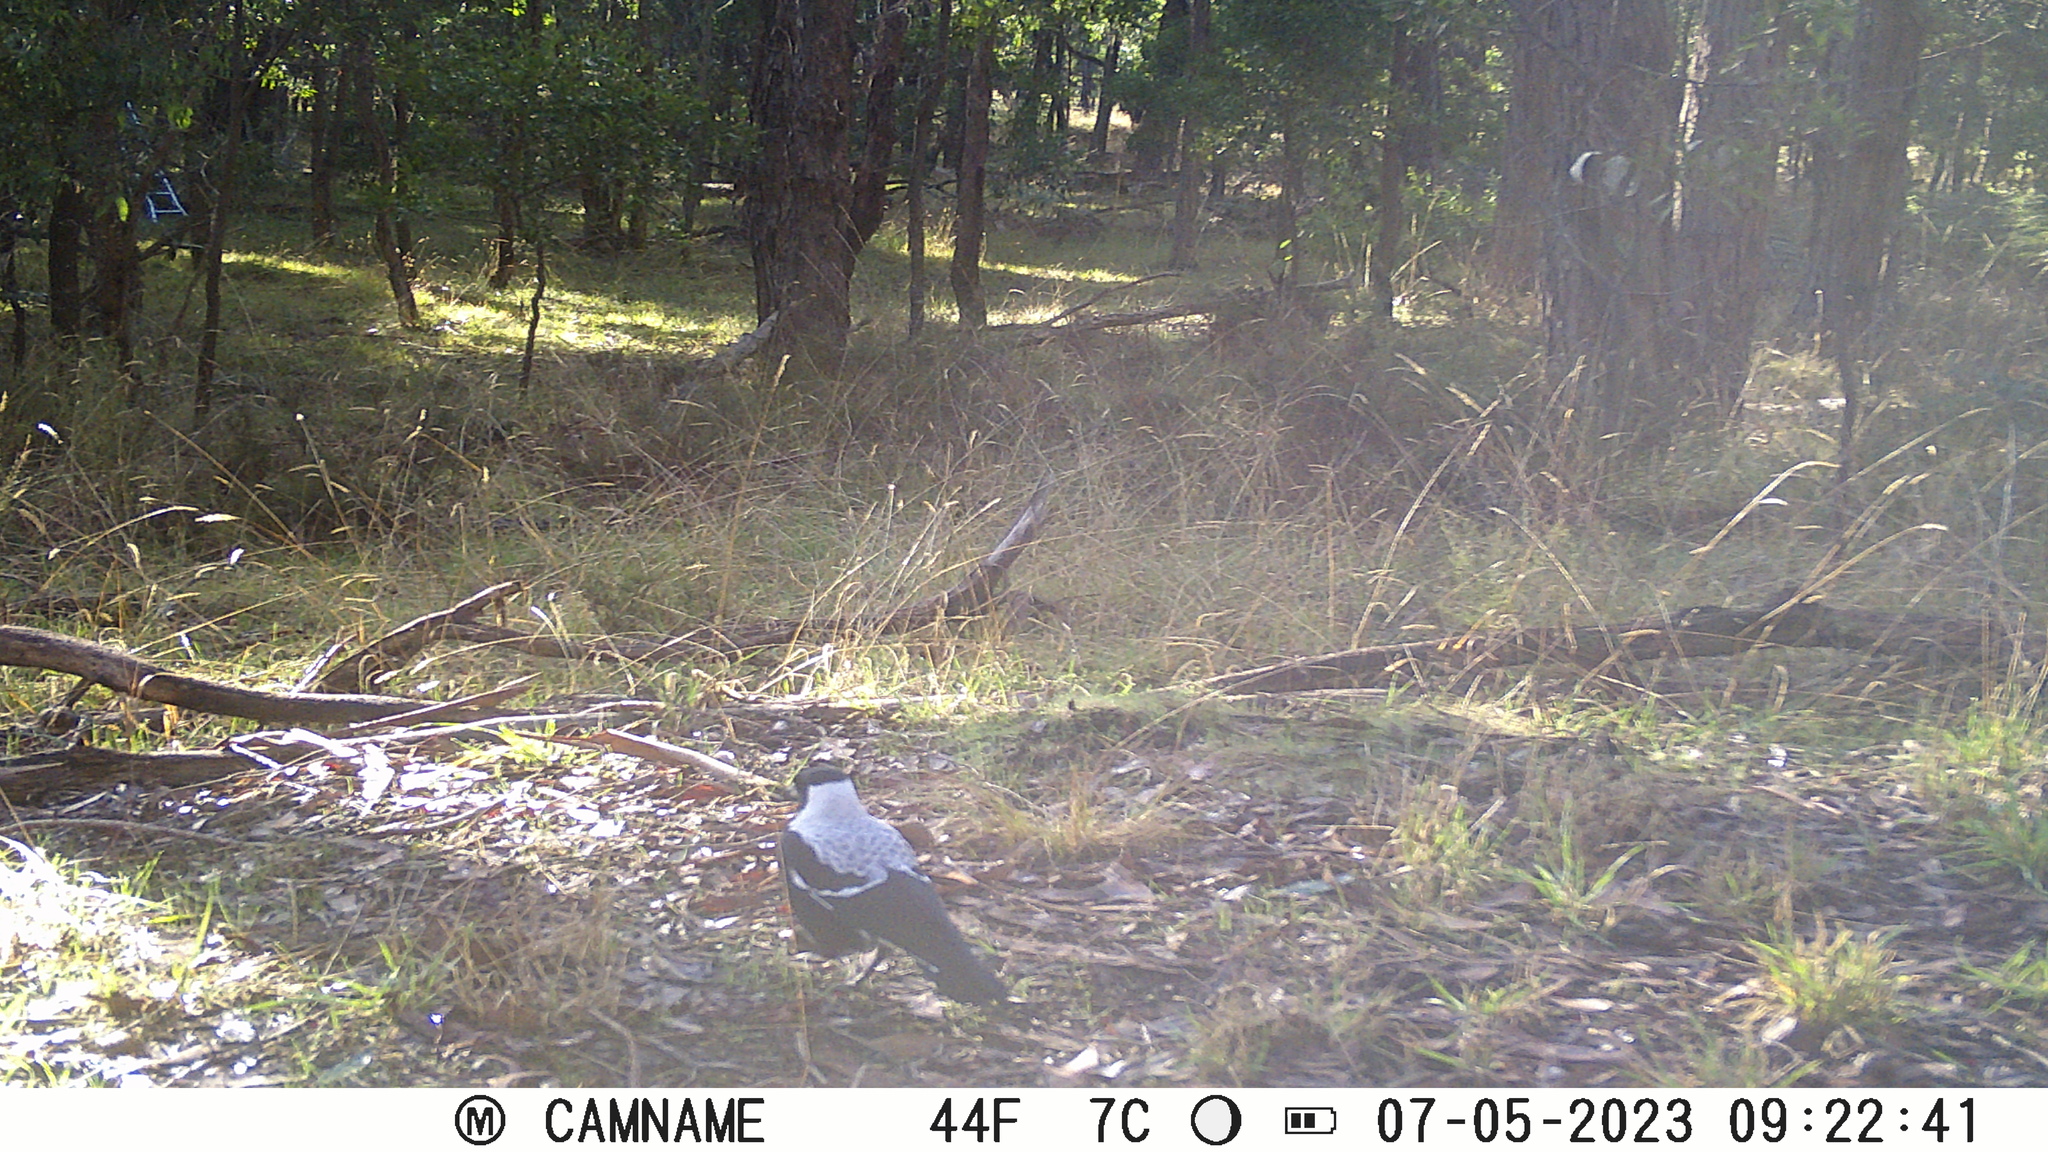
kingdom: Animalia
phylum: Chordata
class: Aves
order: Passeriformes
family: Cracticidae
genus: Gymnorhina
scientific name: Gymnorhina tibicen
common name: Australian magpie
